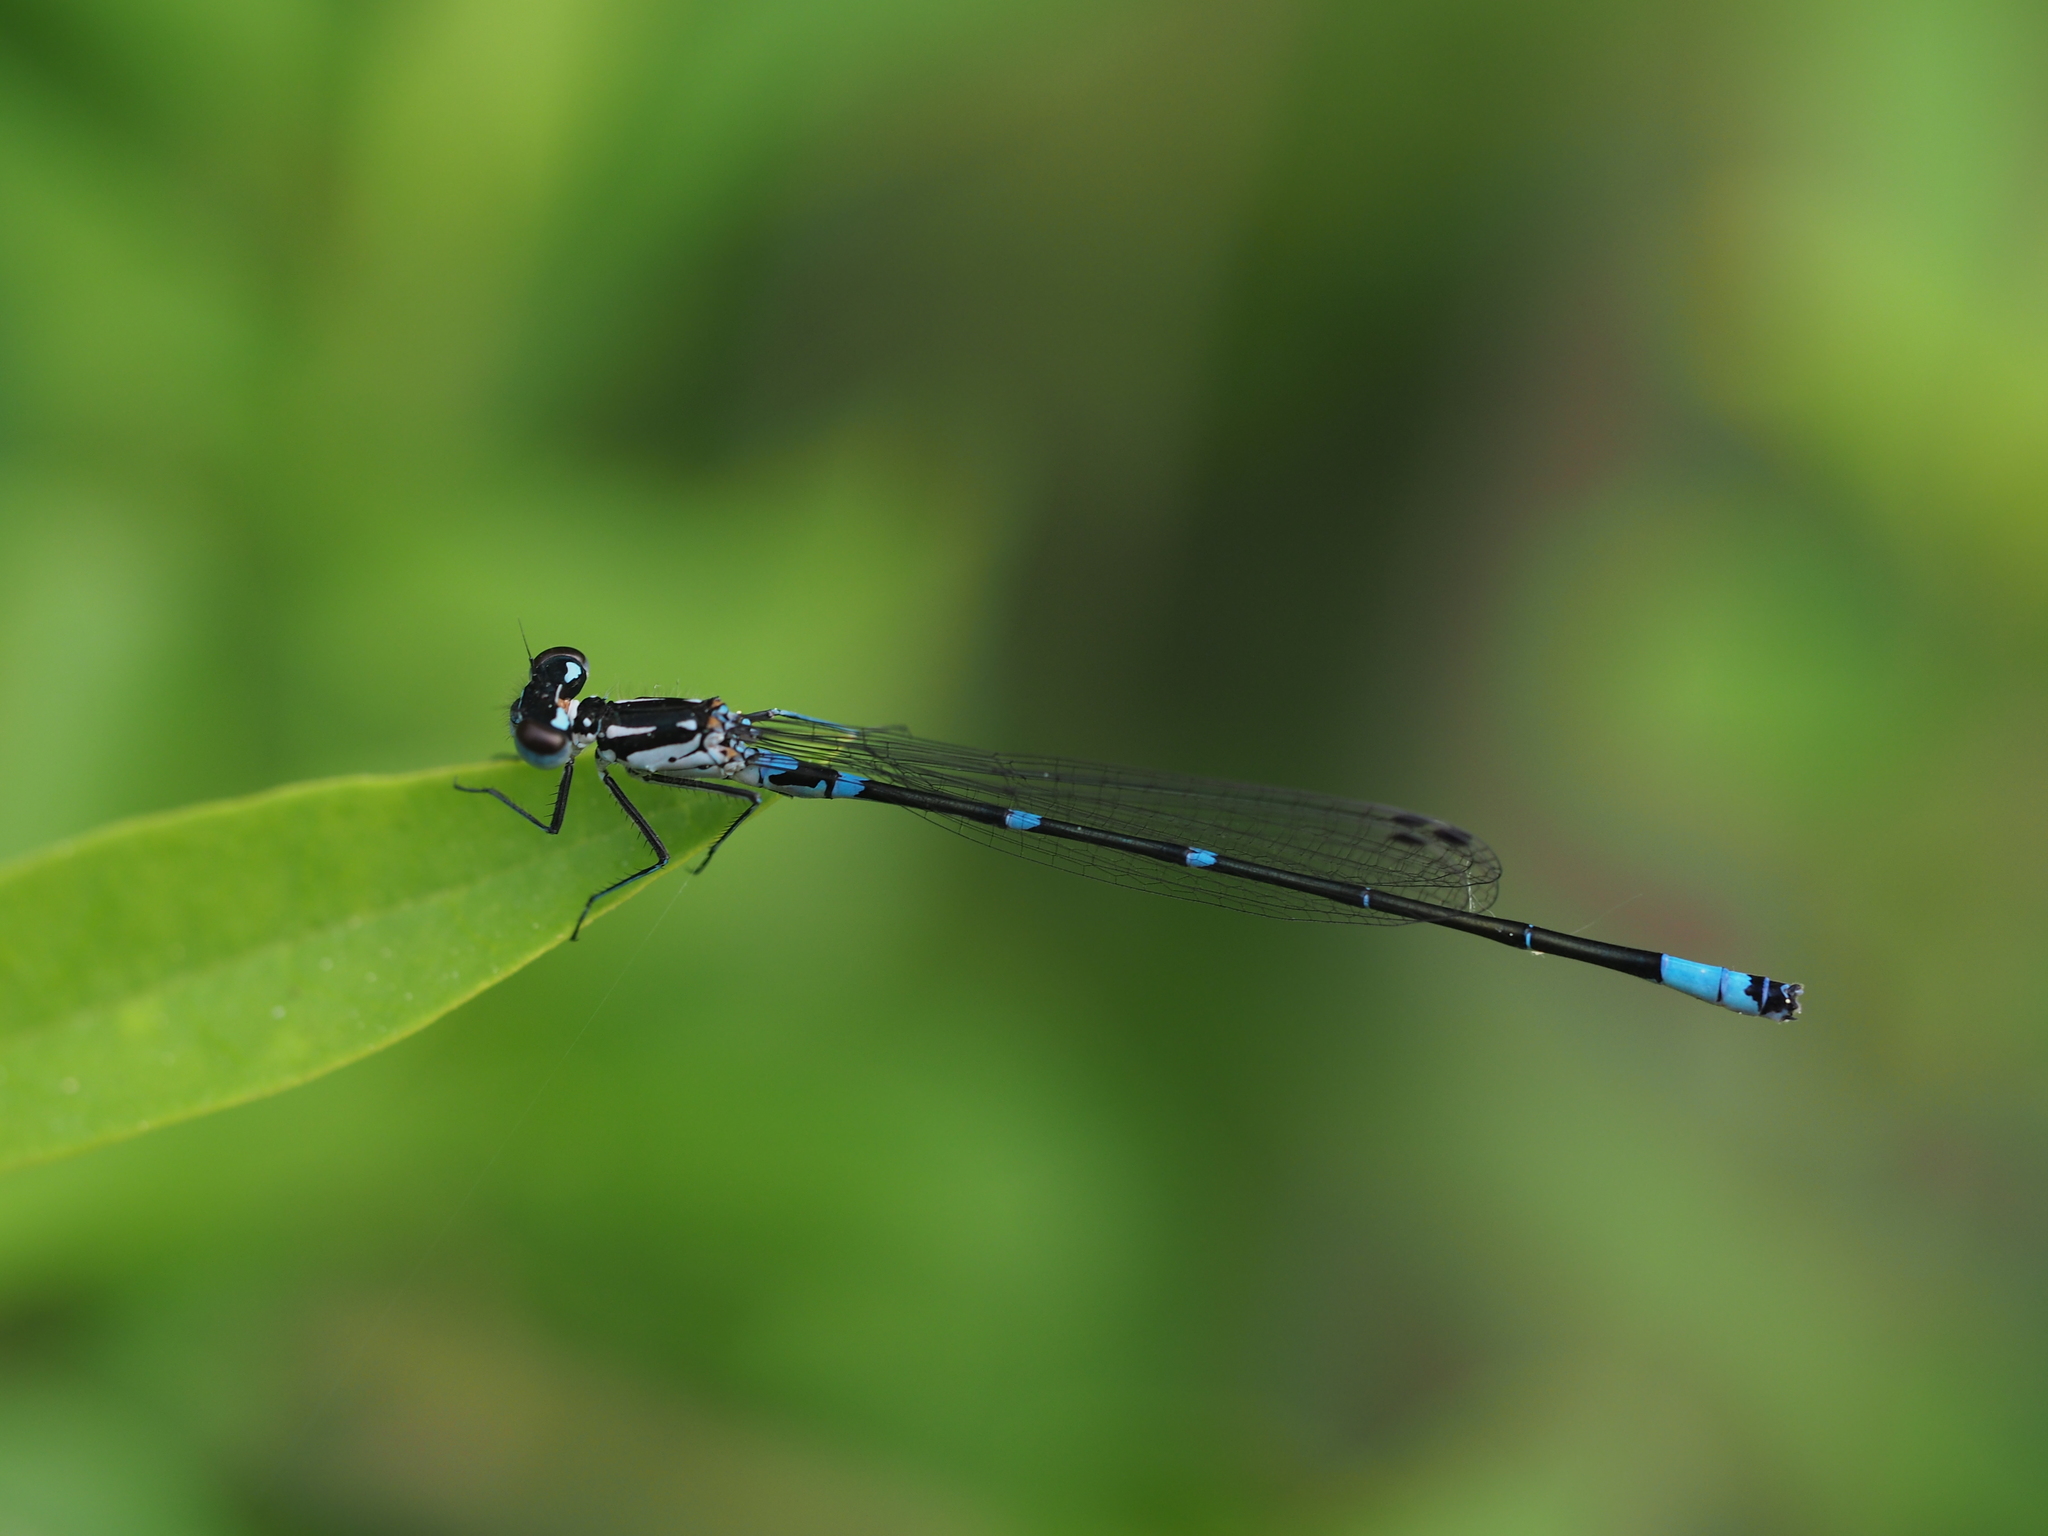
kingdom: Animalia
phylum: Arthropoda
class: Insecta
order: Odonata
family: Coenagrionidae
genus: Coenagrion
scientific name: Coenagrion pulchellum
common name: Variable bluet
